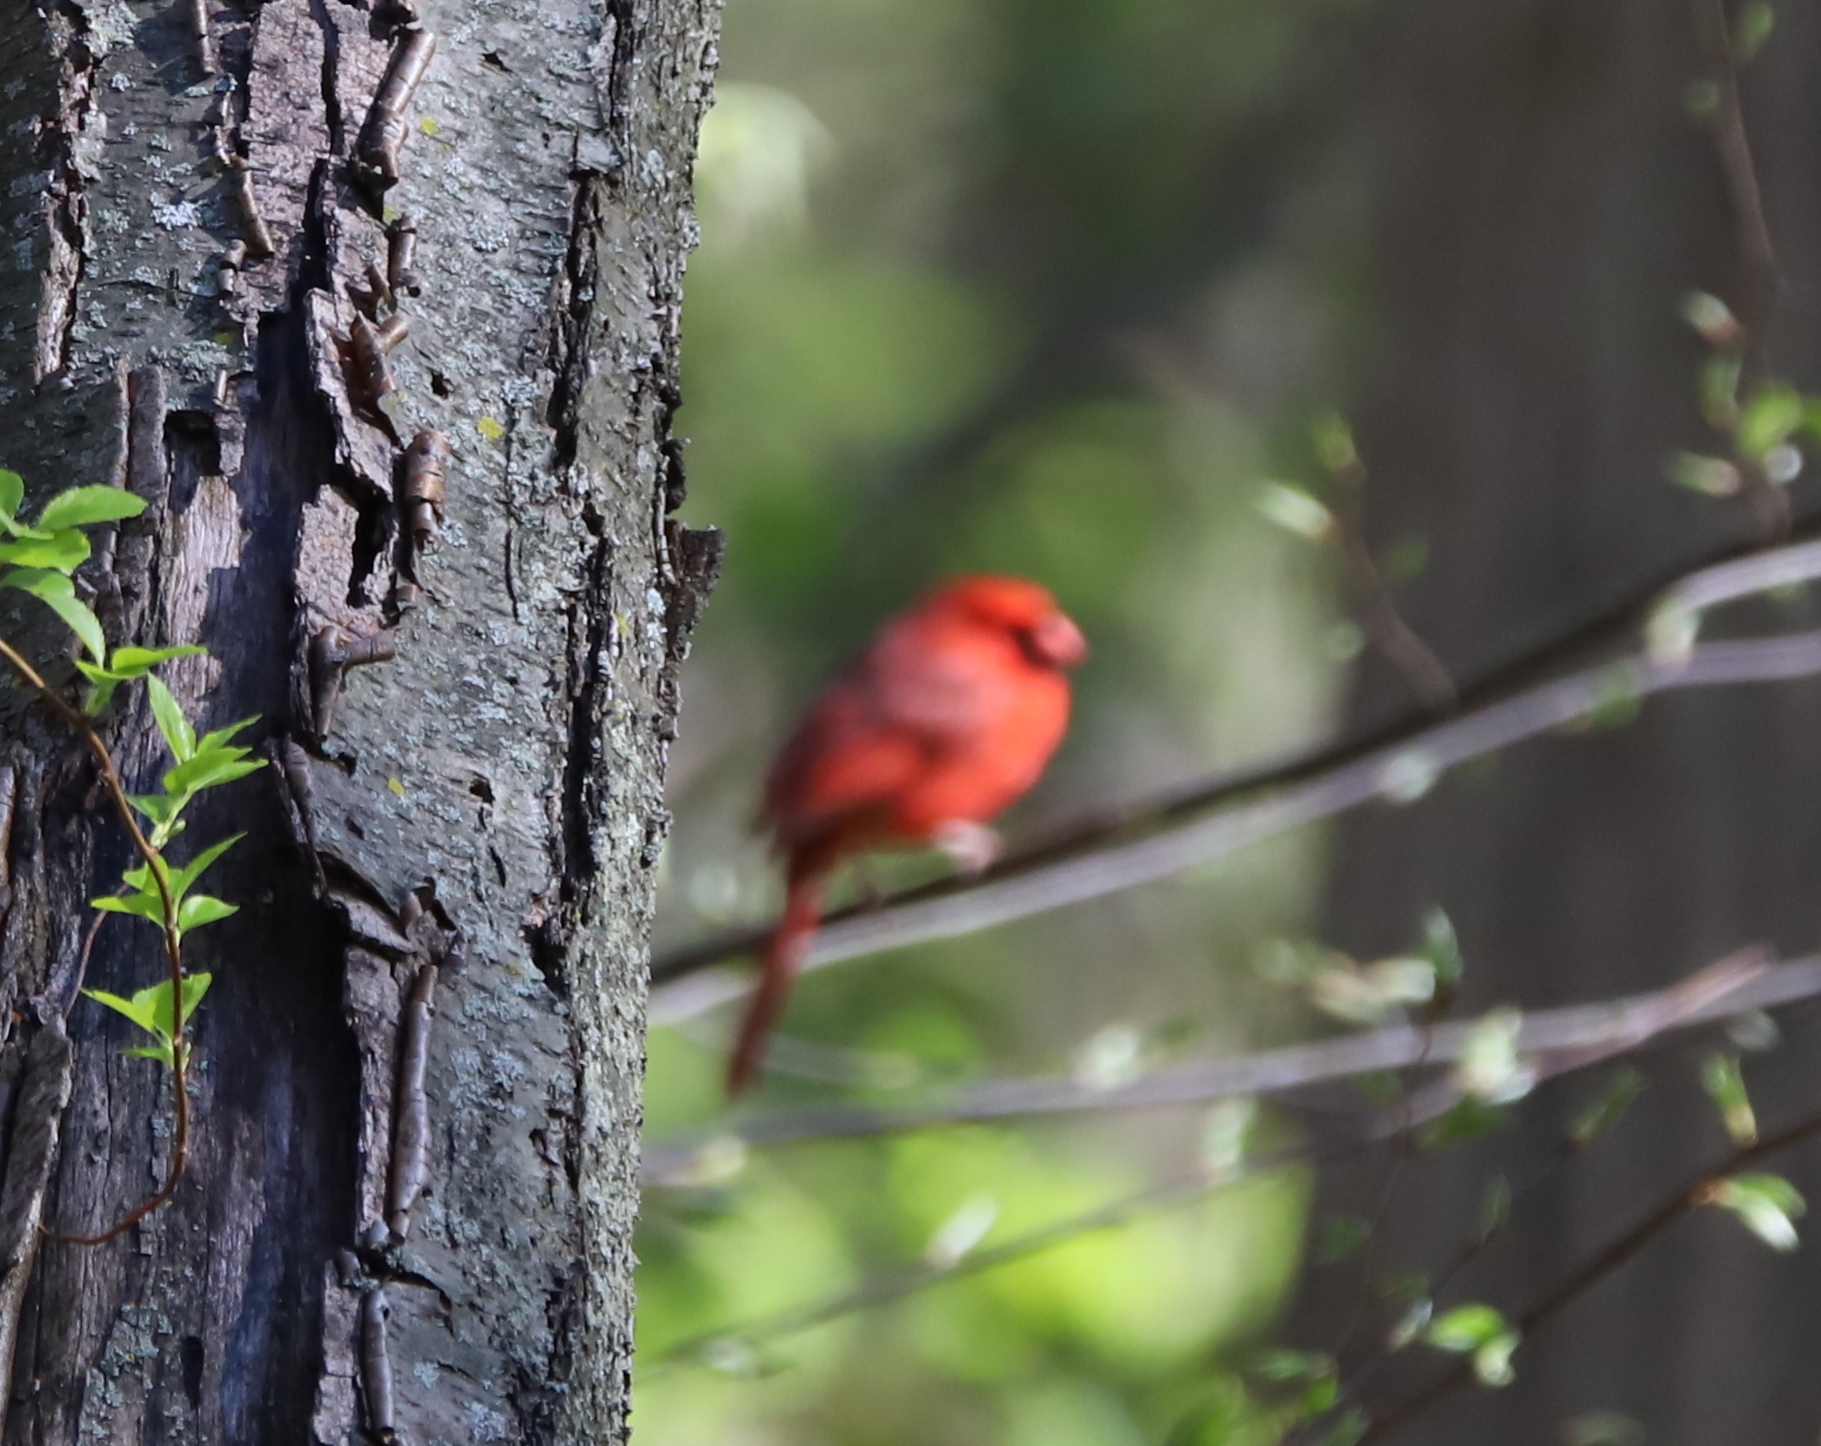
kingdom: Animalia
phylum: Chordata
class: Aves
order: Passeriformes
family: Cardinalidae
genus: Cardinalis
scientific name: Cardinalis cardinalis
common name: Northern cardinal
